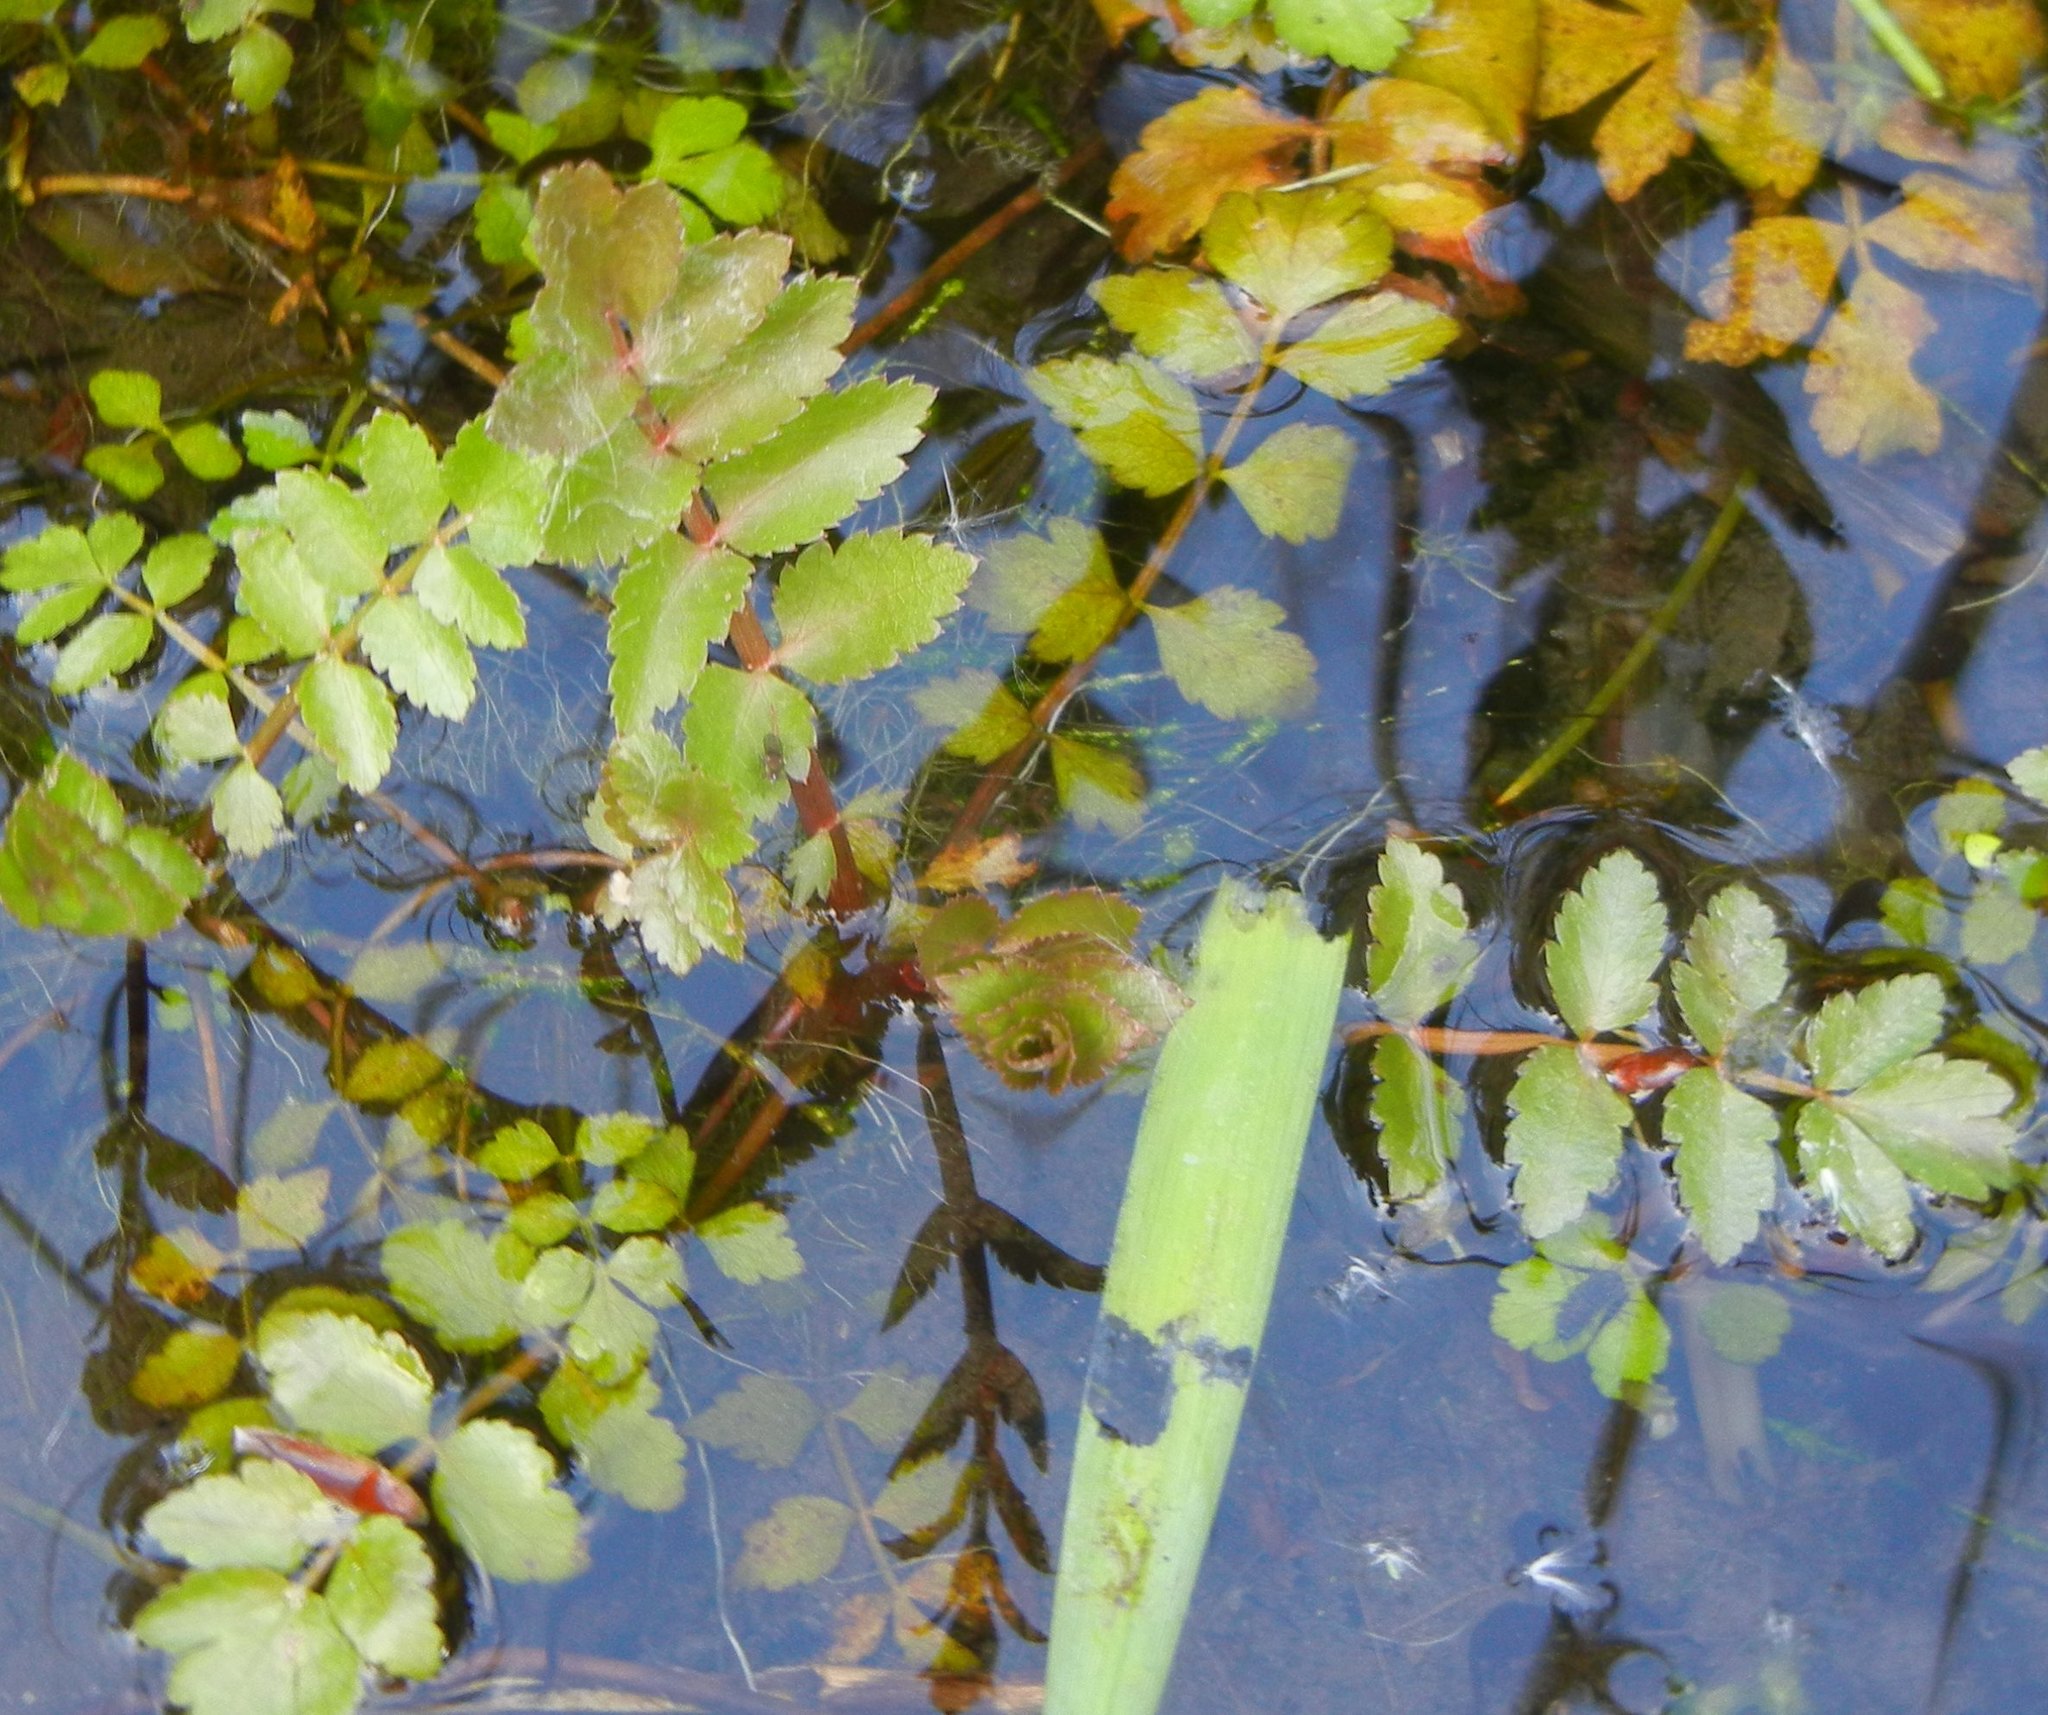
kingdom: Plantae
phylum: Tracheophyta
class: Magnoliopsida
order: Apiales
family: Apiaceae
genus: Berula
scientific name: Berula erecta
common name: Lesser water-parsnip
